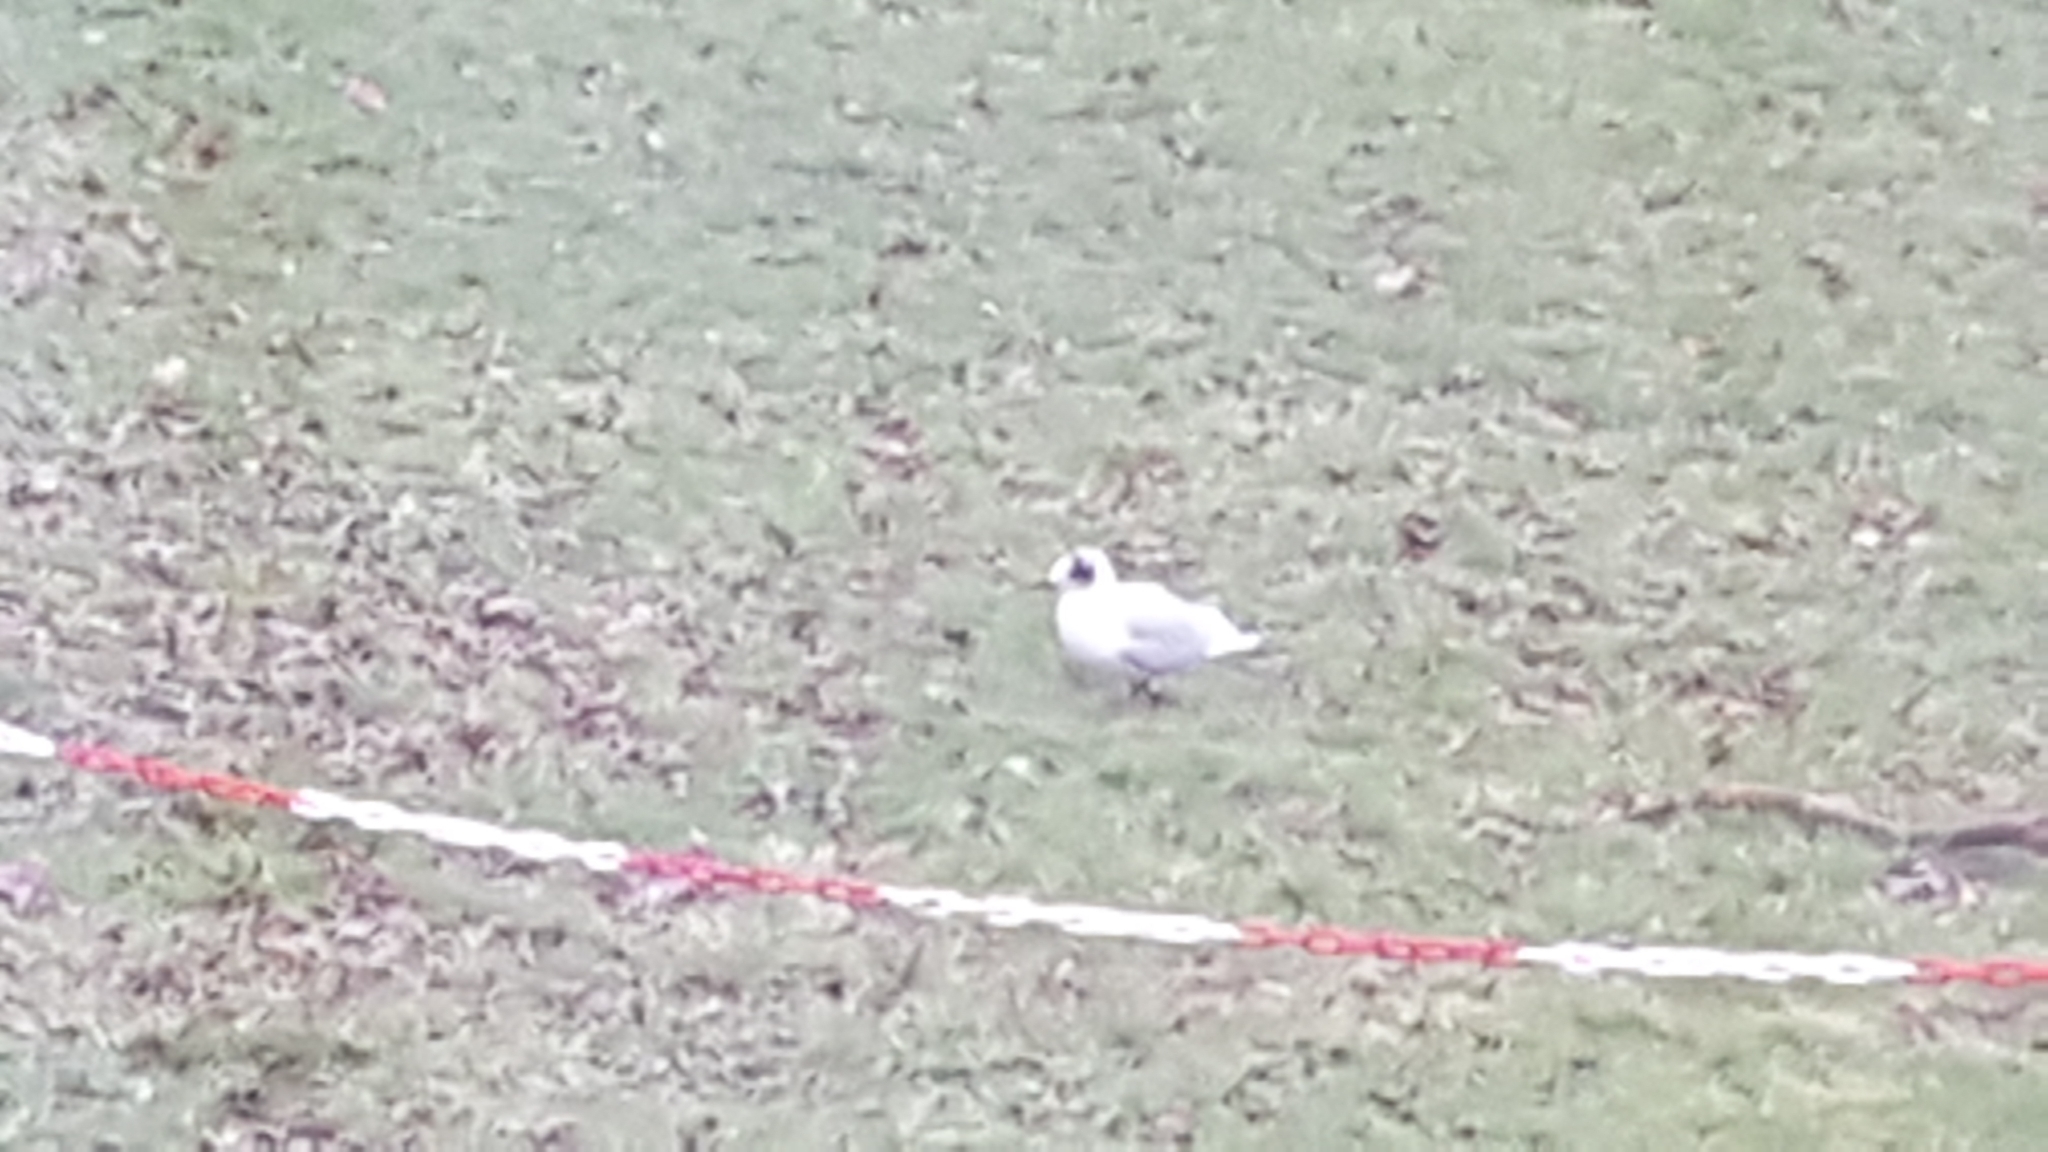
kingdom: Animalia
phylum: Chordata
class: Aves
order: Charadriiformes
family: Laridae
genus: Chroicocephalus
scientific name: Chroicocephalus ridibundus
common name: Black-headed gull
